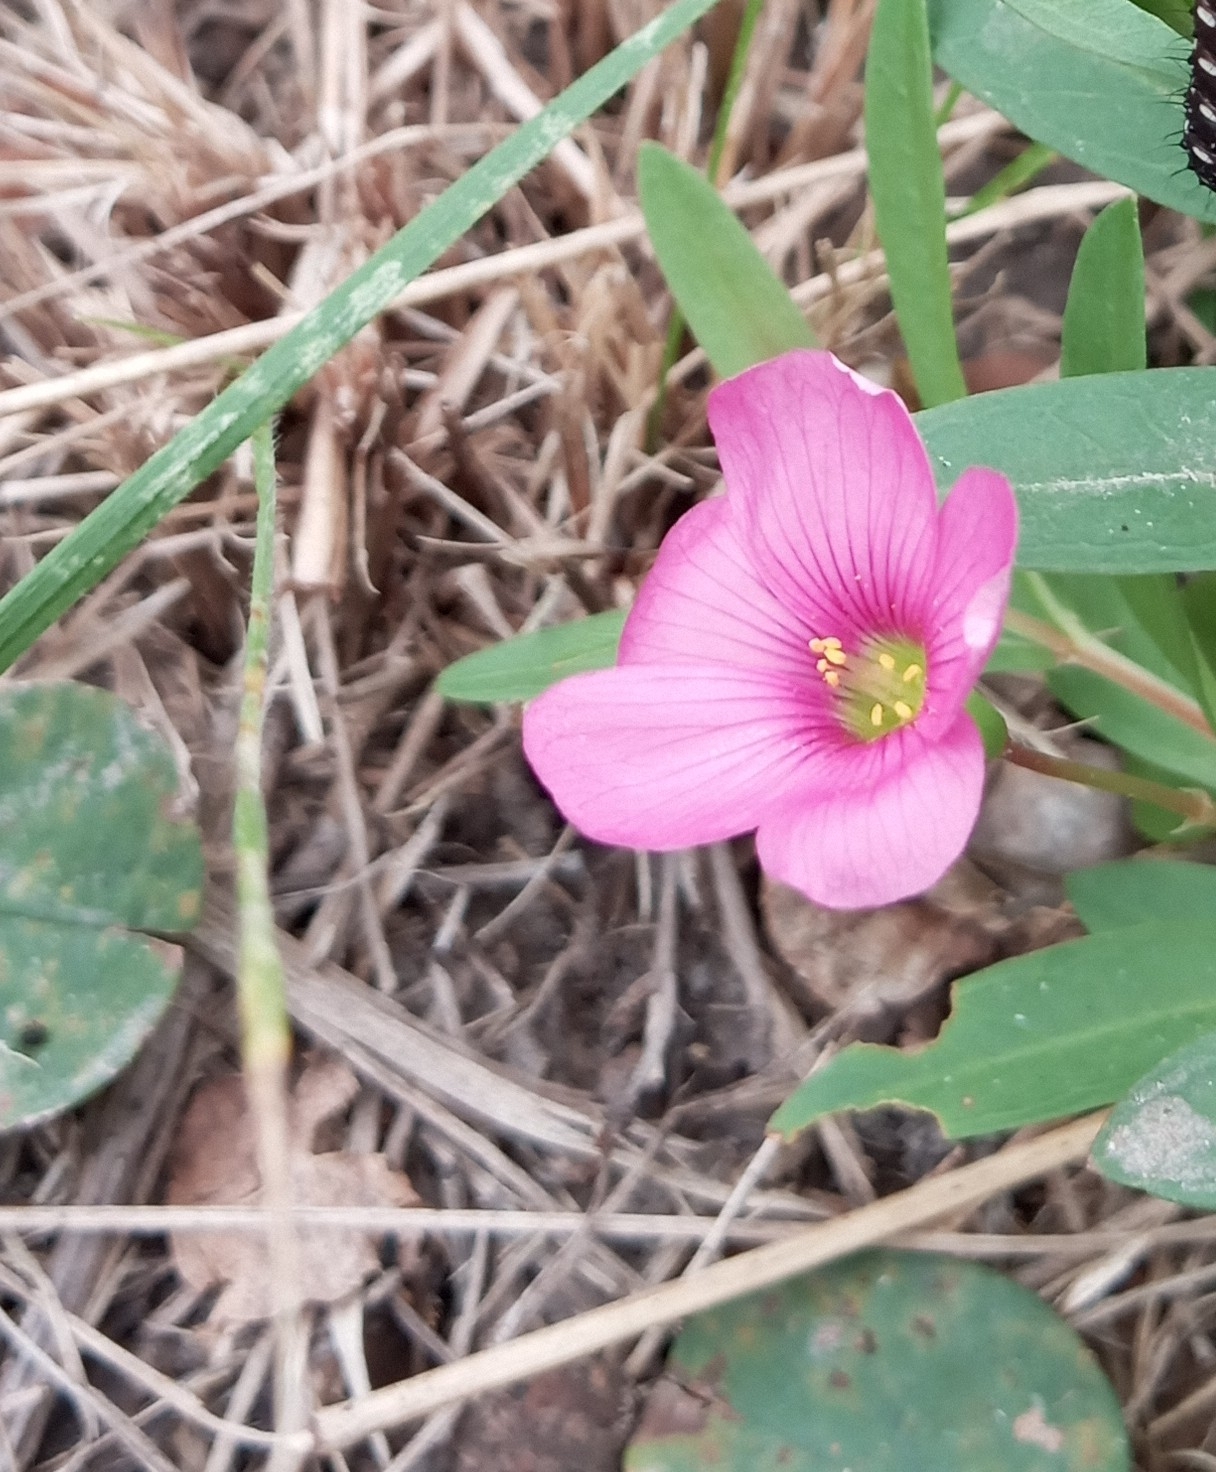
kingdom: Plantae
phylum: Tracheophyta
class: Magnoliopsida
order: Oxalidales
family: Oxalidaceae
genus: Oxalis
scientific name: Oxalis articulata
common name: Pink-sorrel
